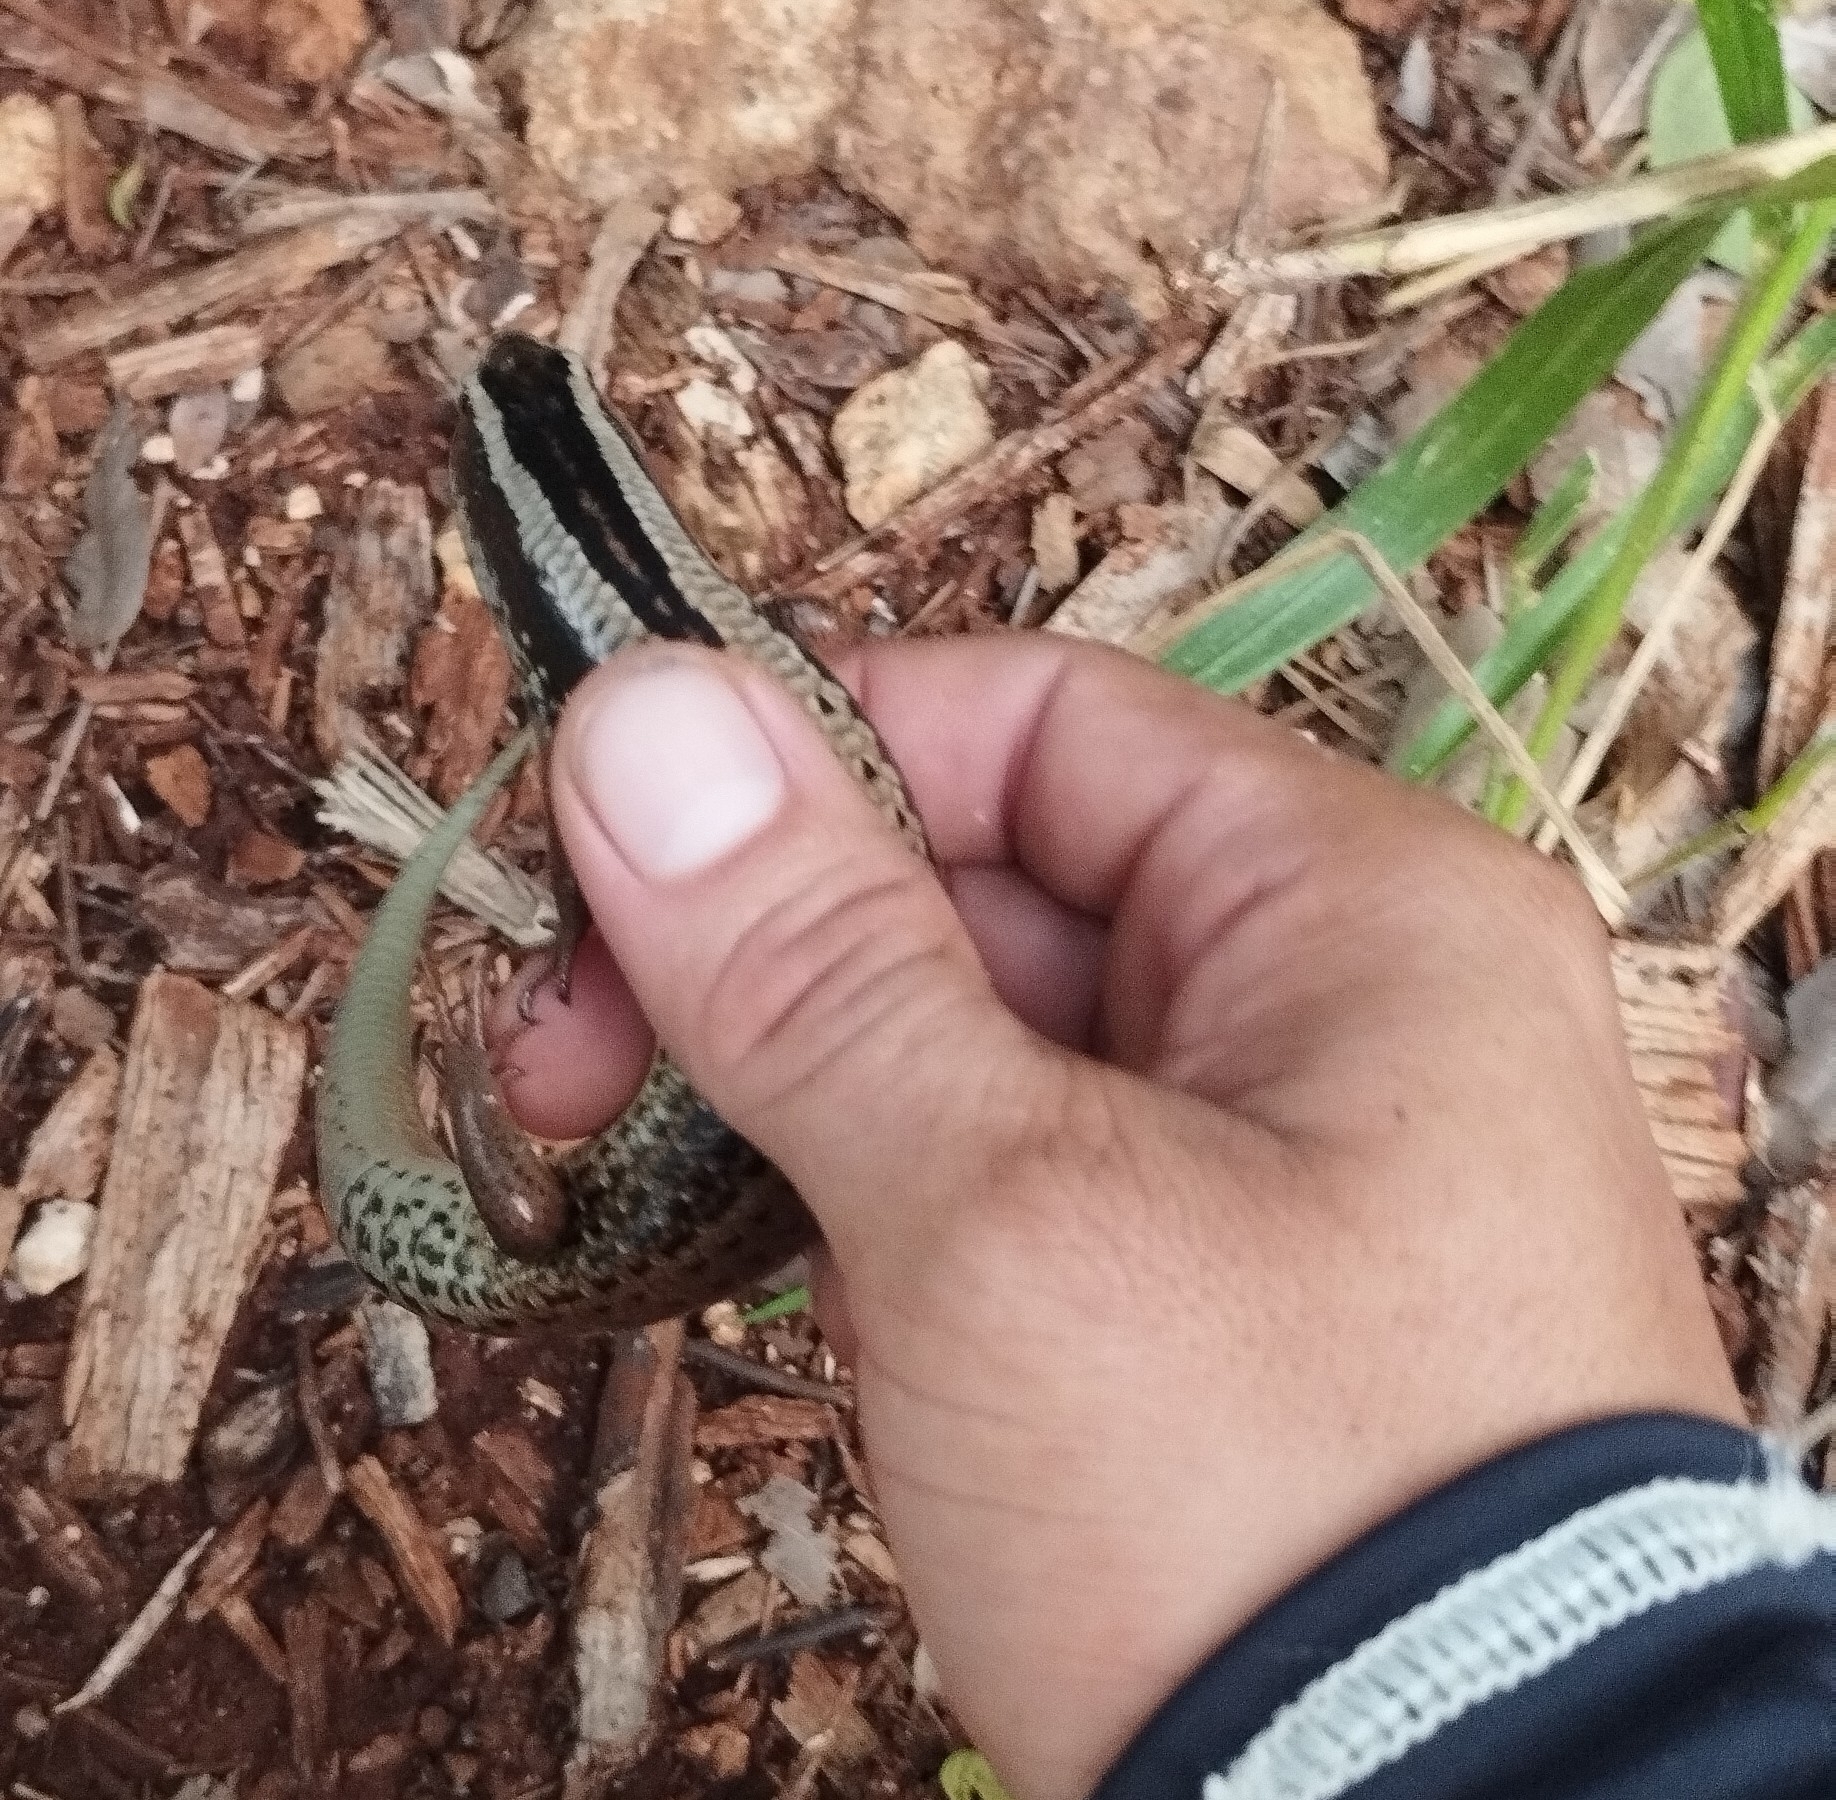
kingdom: Animalia
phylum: Chordata
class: Squamata
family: Scincidae
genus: Mesoscincus
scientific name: Mesoscincus schwartzei
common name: Mayan black-headed skink
